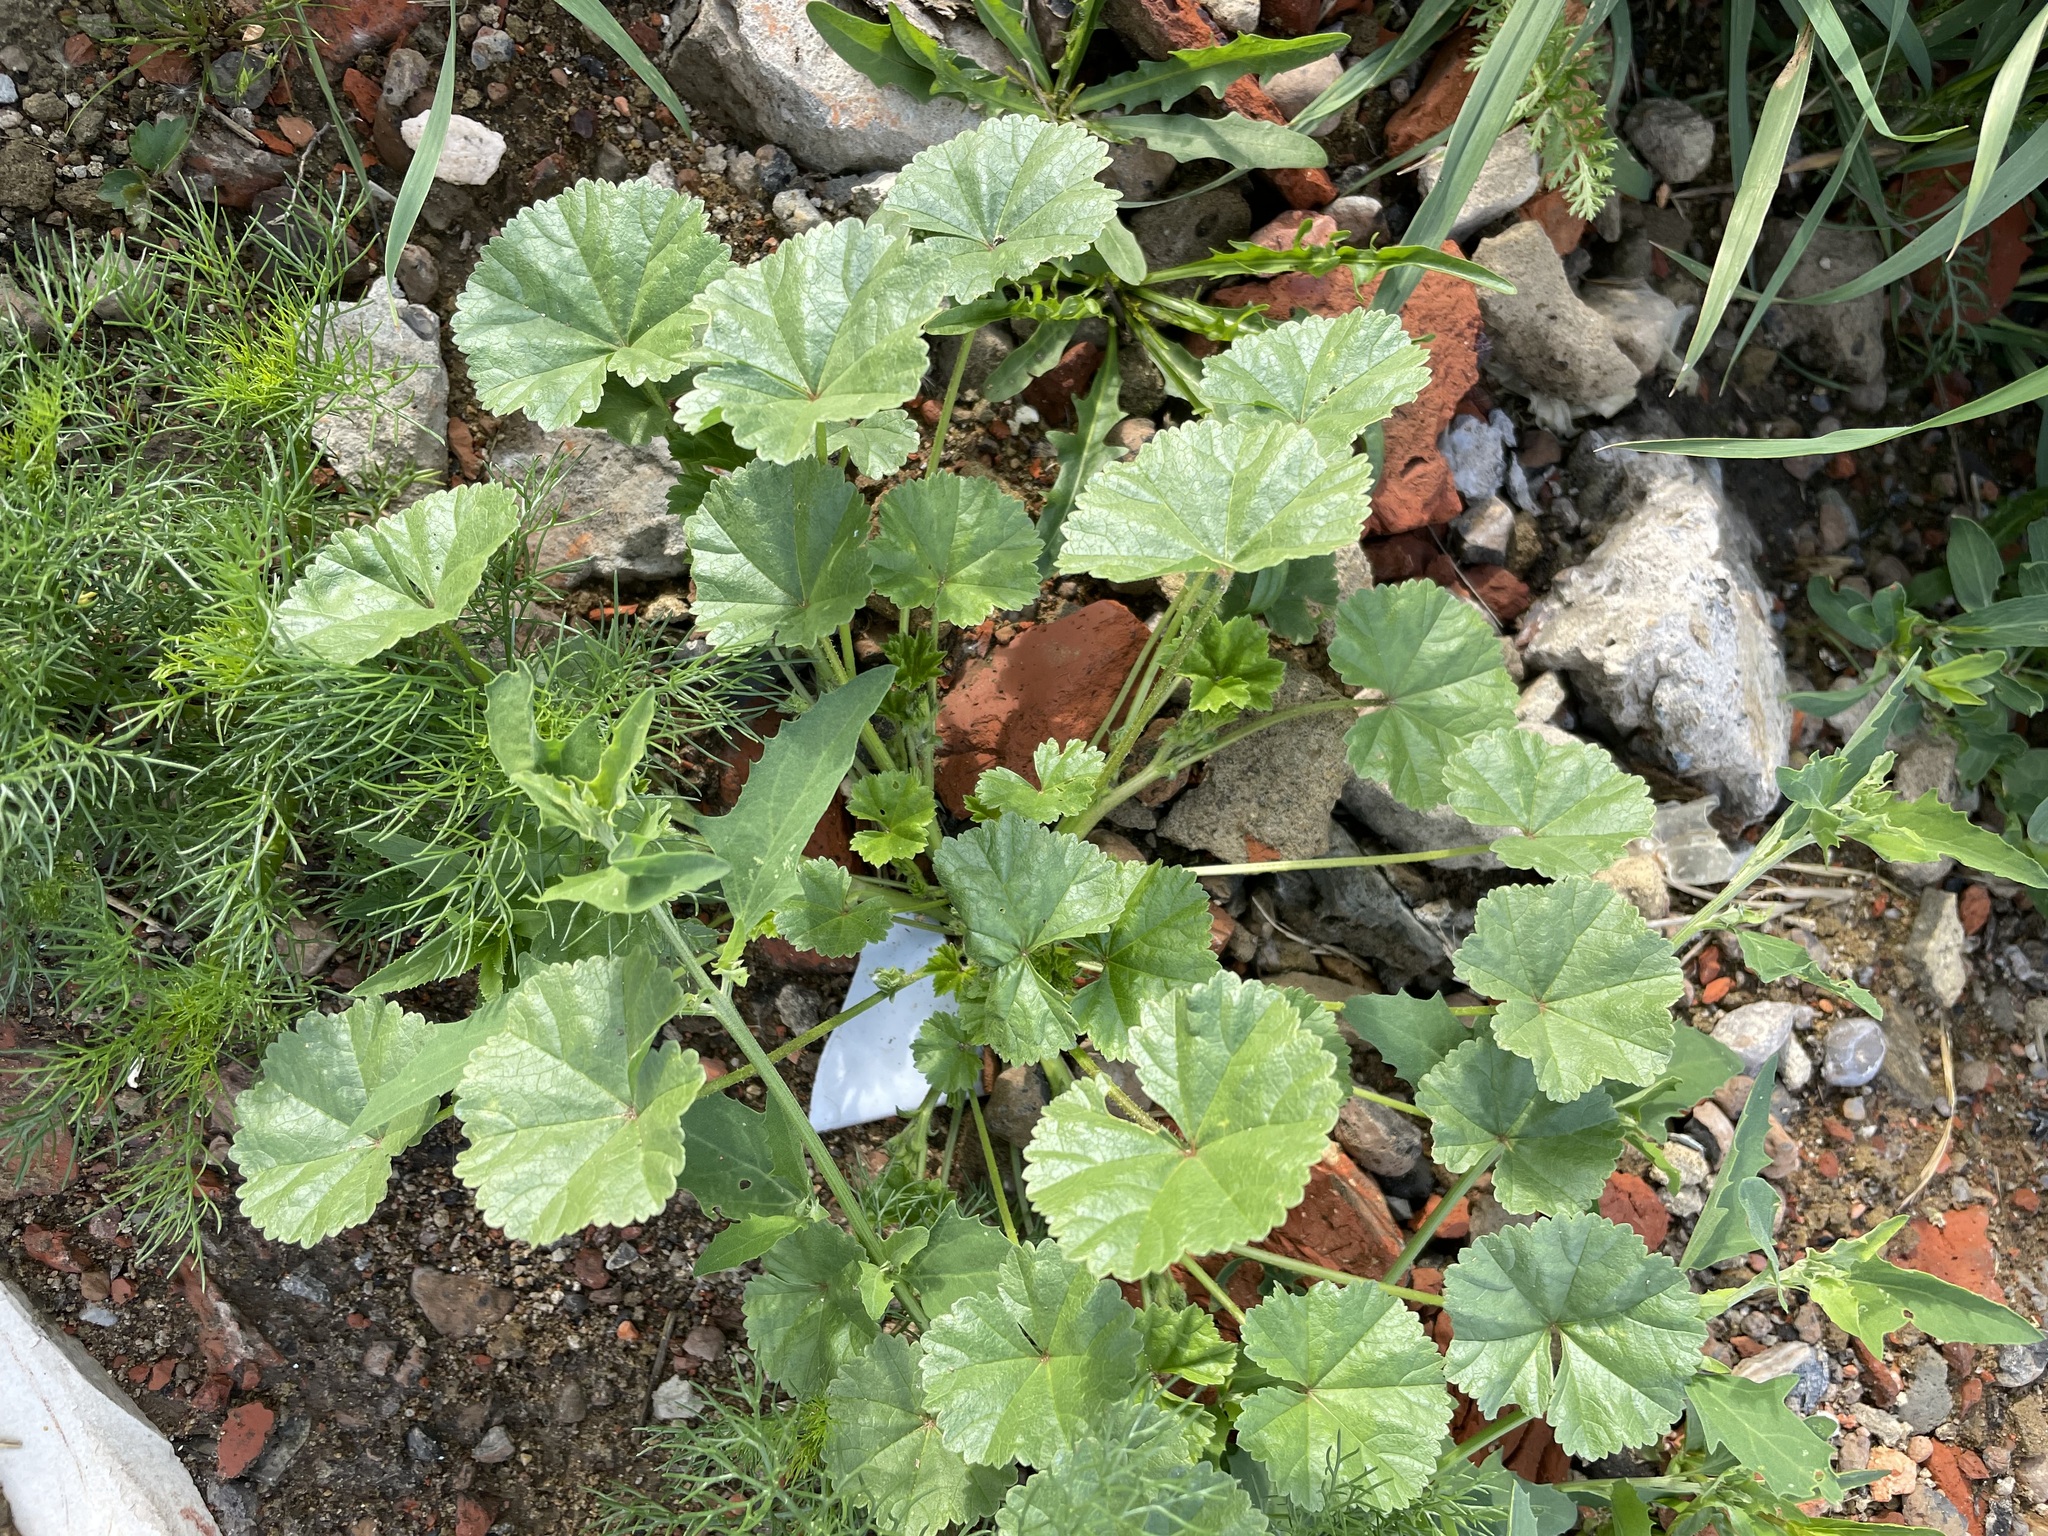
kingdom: Plantae
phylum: Tracheophyta
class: Magnoliopsida
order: Malvales
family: Malvaceae
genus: Malva
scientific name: Malva pusilla
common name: Small mallow
